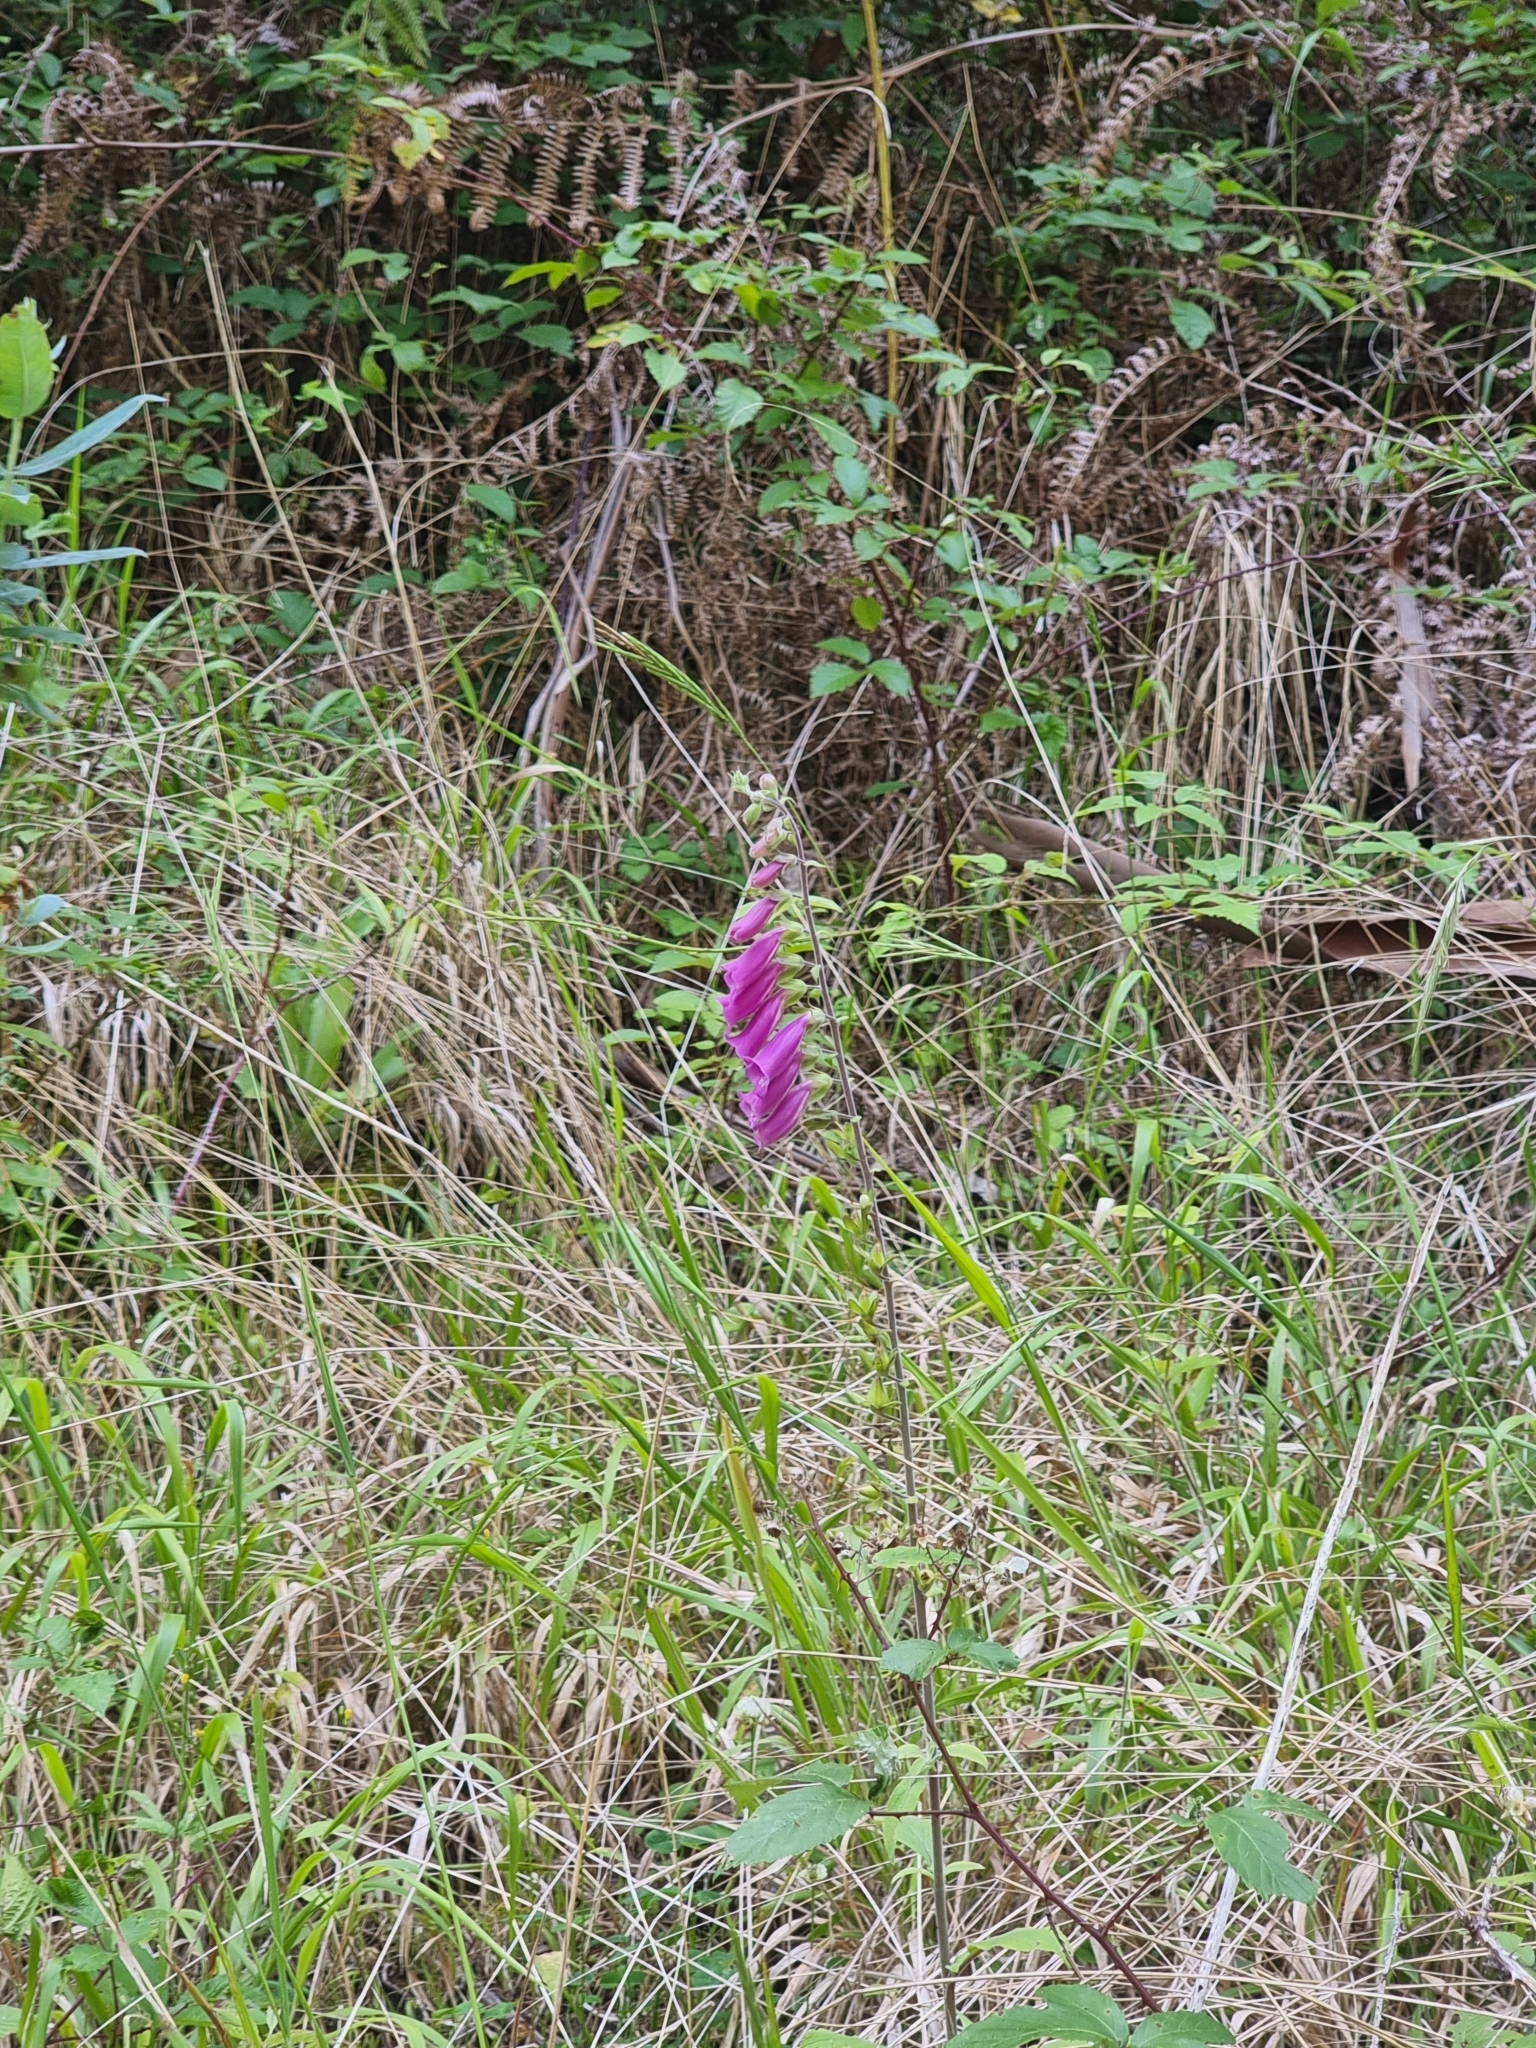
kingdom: Plantae
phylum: Tracheophyta
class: Magnoliopsida
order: Lamiales
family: Plantaginaceae
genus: Digitalis
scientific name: Digitalis purpurea
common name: Foxglove
